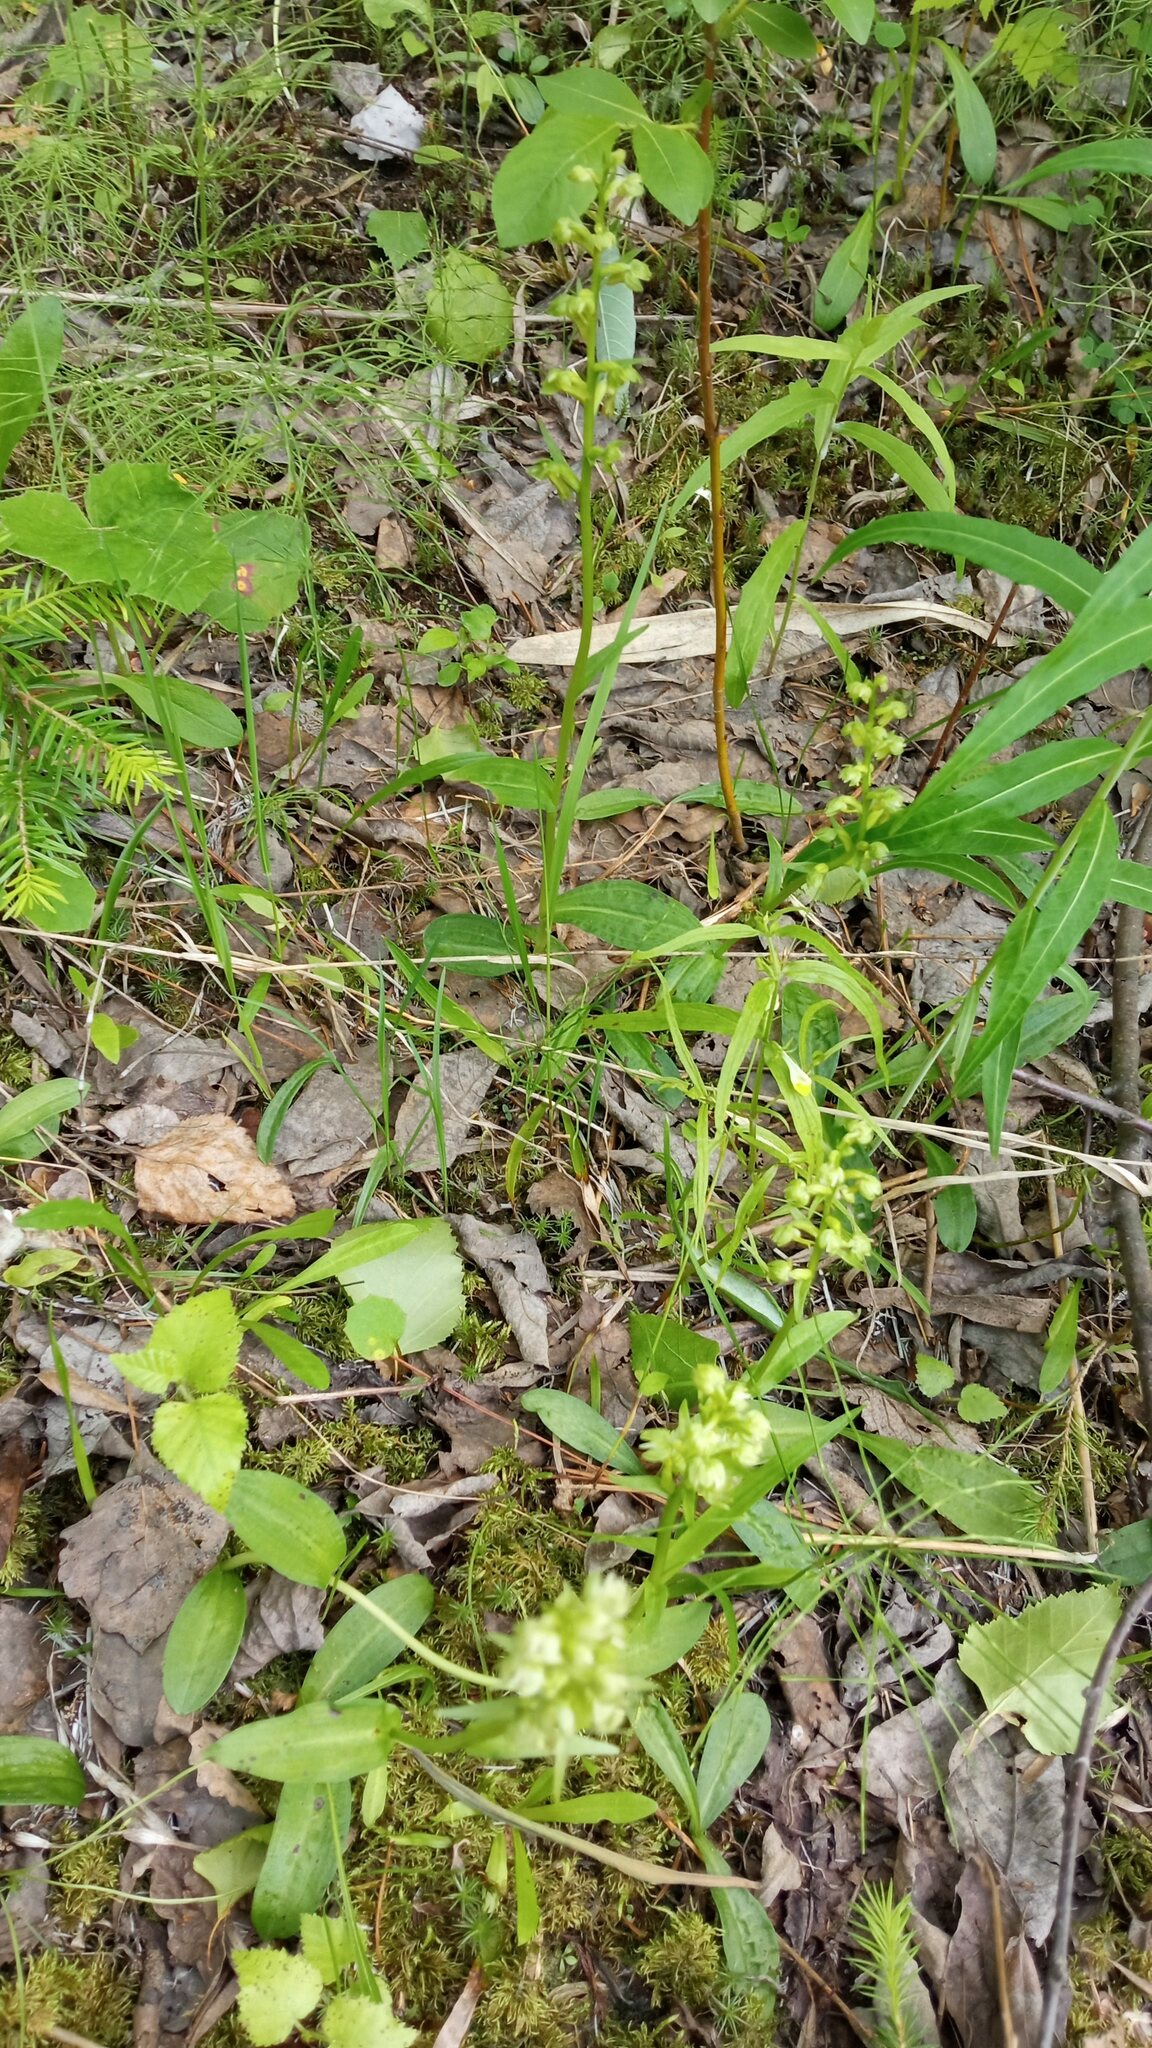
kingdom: Plantae
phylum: Tracheophyta
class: Liliopsida
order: Asparagales
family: Orchidaceae
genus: Dactylorhiza
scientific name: Dactylorhiza viridis
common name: Longbract frog orchid
